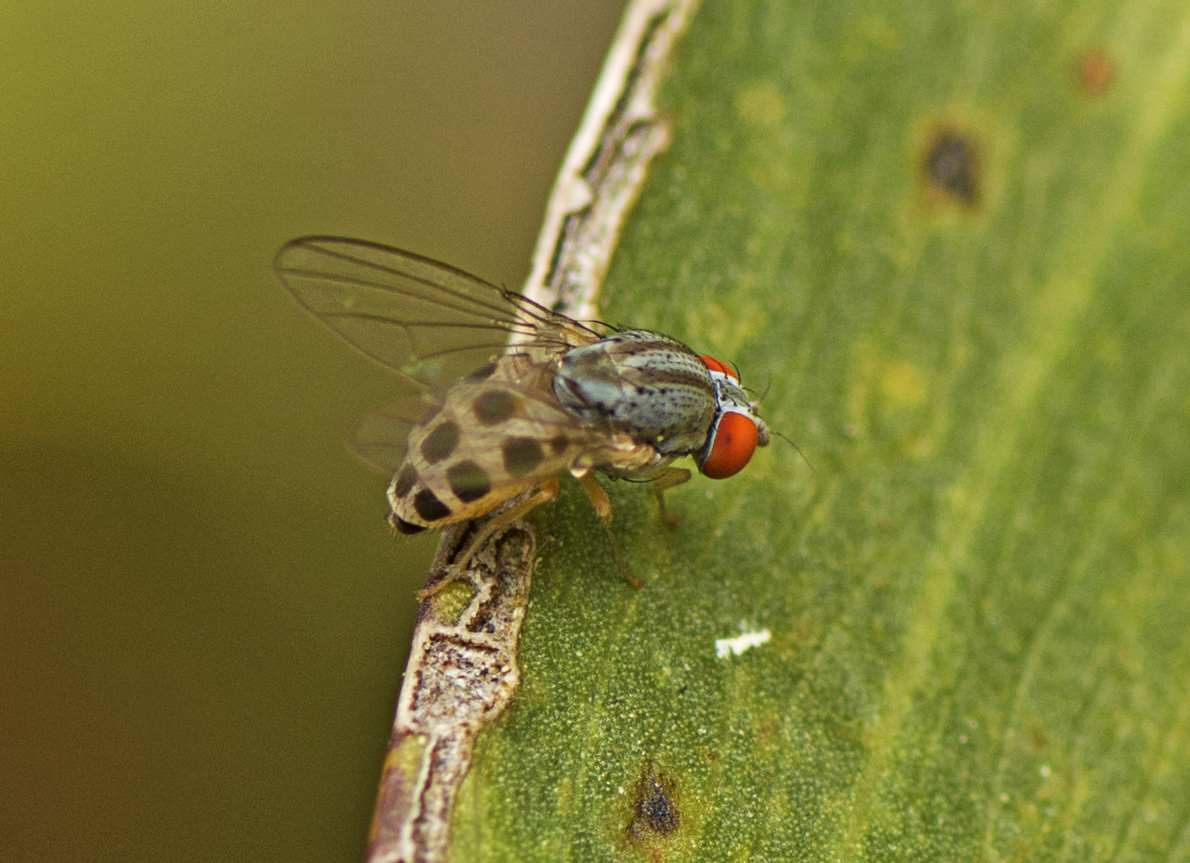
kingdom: Animalia
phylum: Arthropoda
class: Insecta
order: Diptera
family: Drosophilidae
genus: Luzonimyia
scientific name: Luzonimyia cineracea
